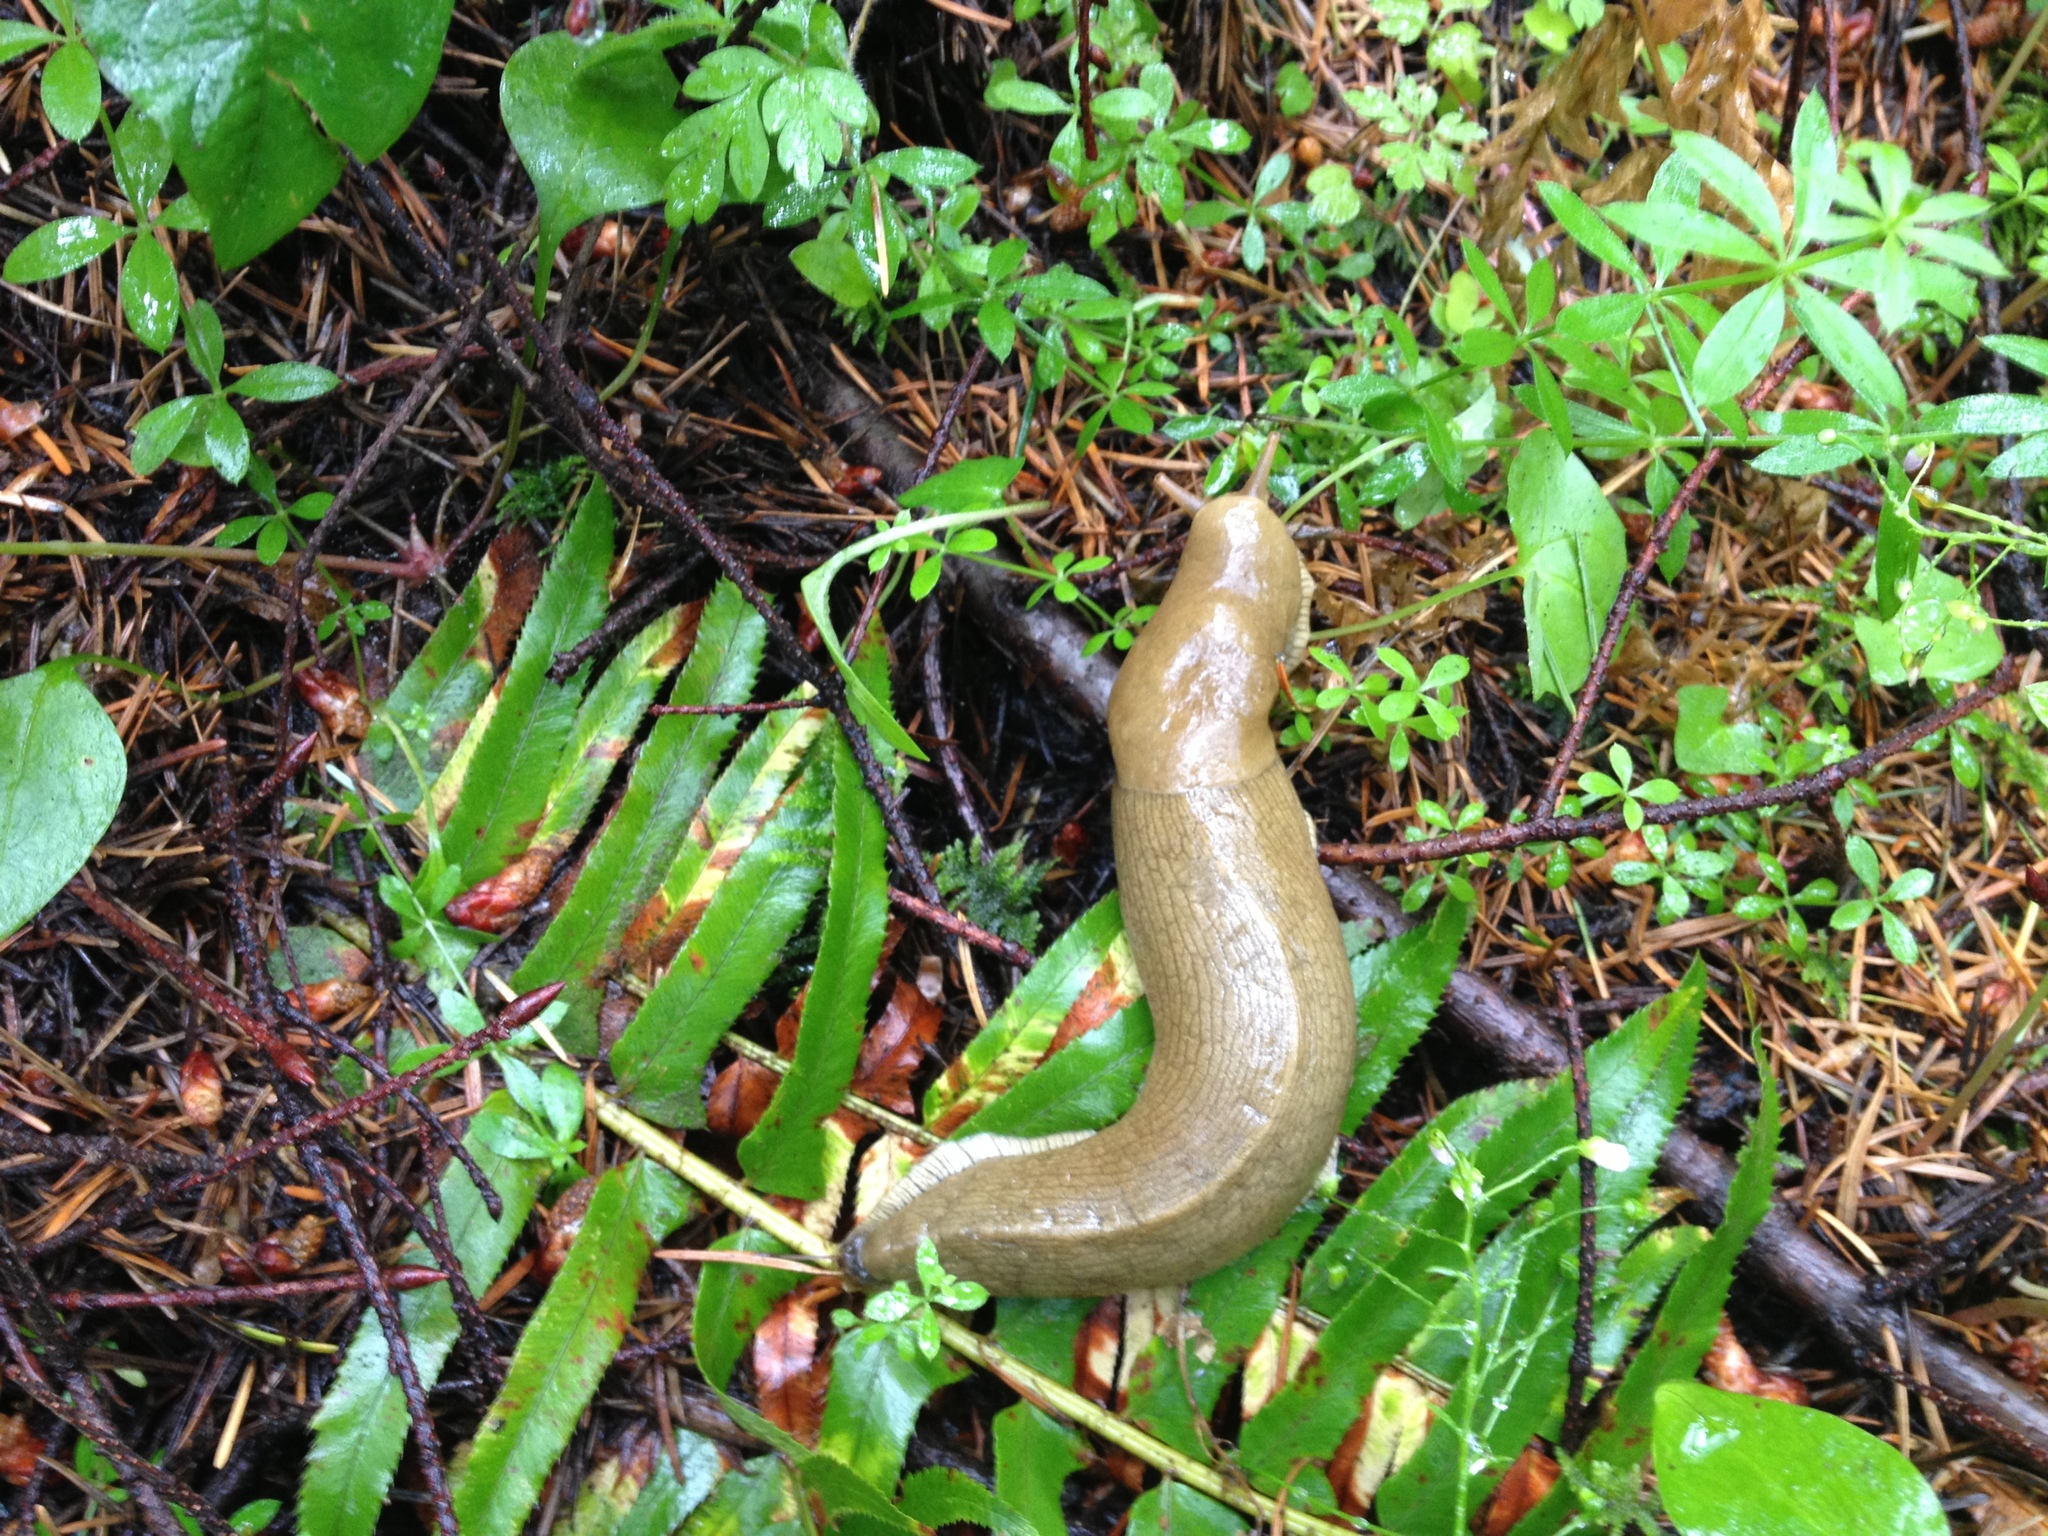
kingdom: Animalia
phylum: Mollusca
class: Gastropoda
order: Stylommatophora
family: Ariolimacidae
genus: Ariolimax
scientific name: Ariolimax columbianus
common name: Pacific banana slug
